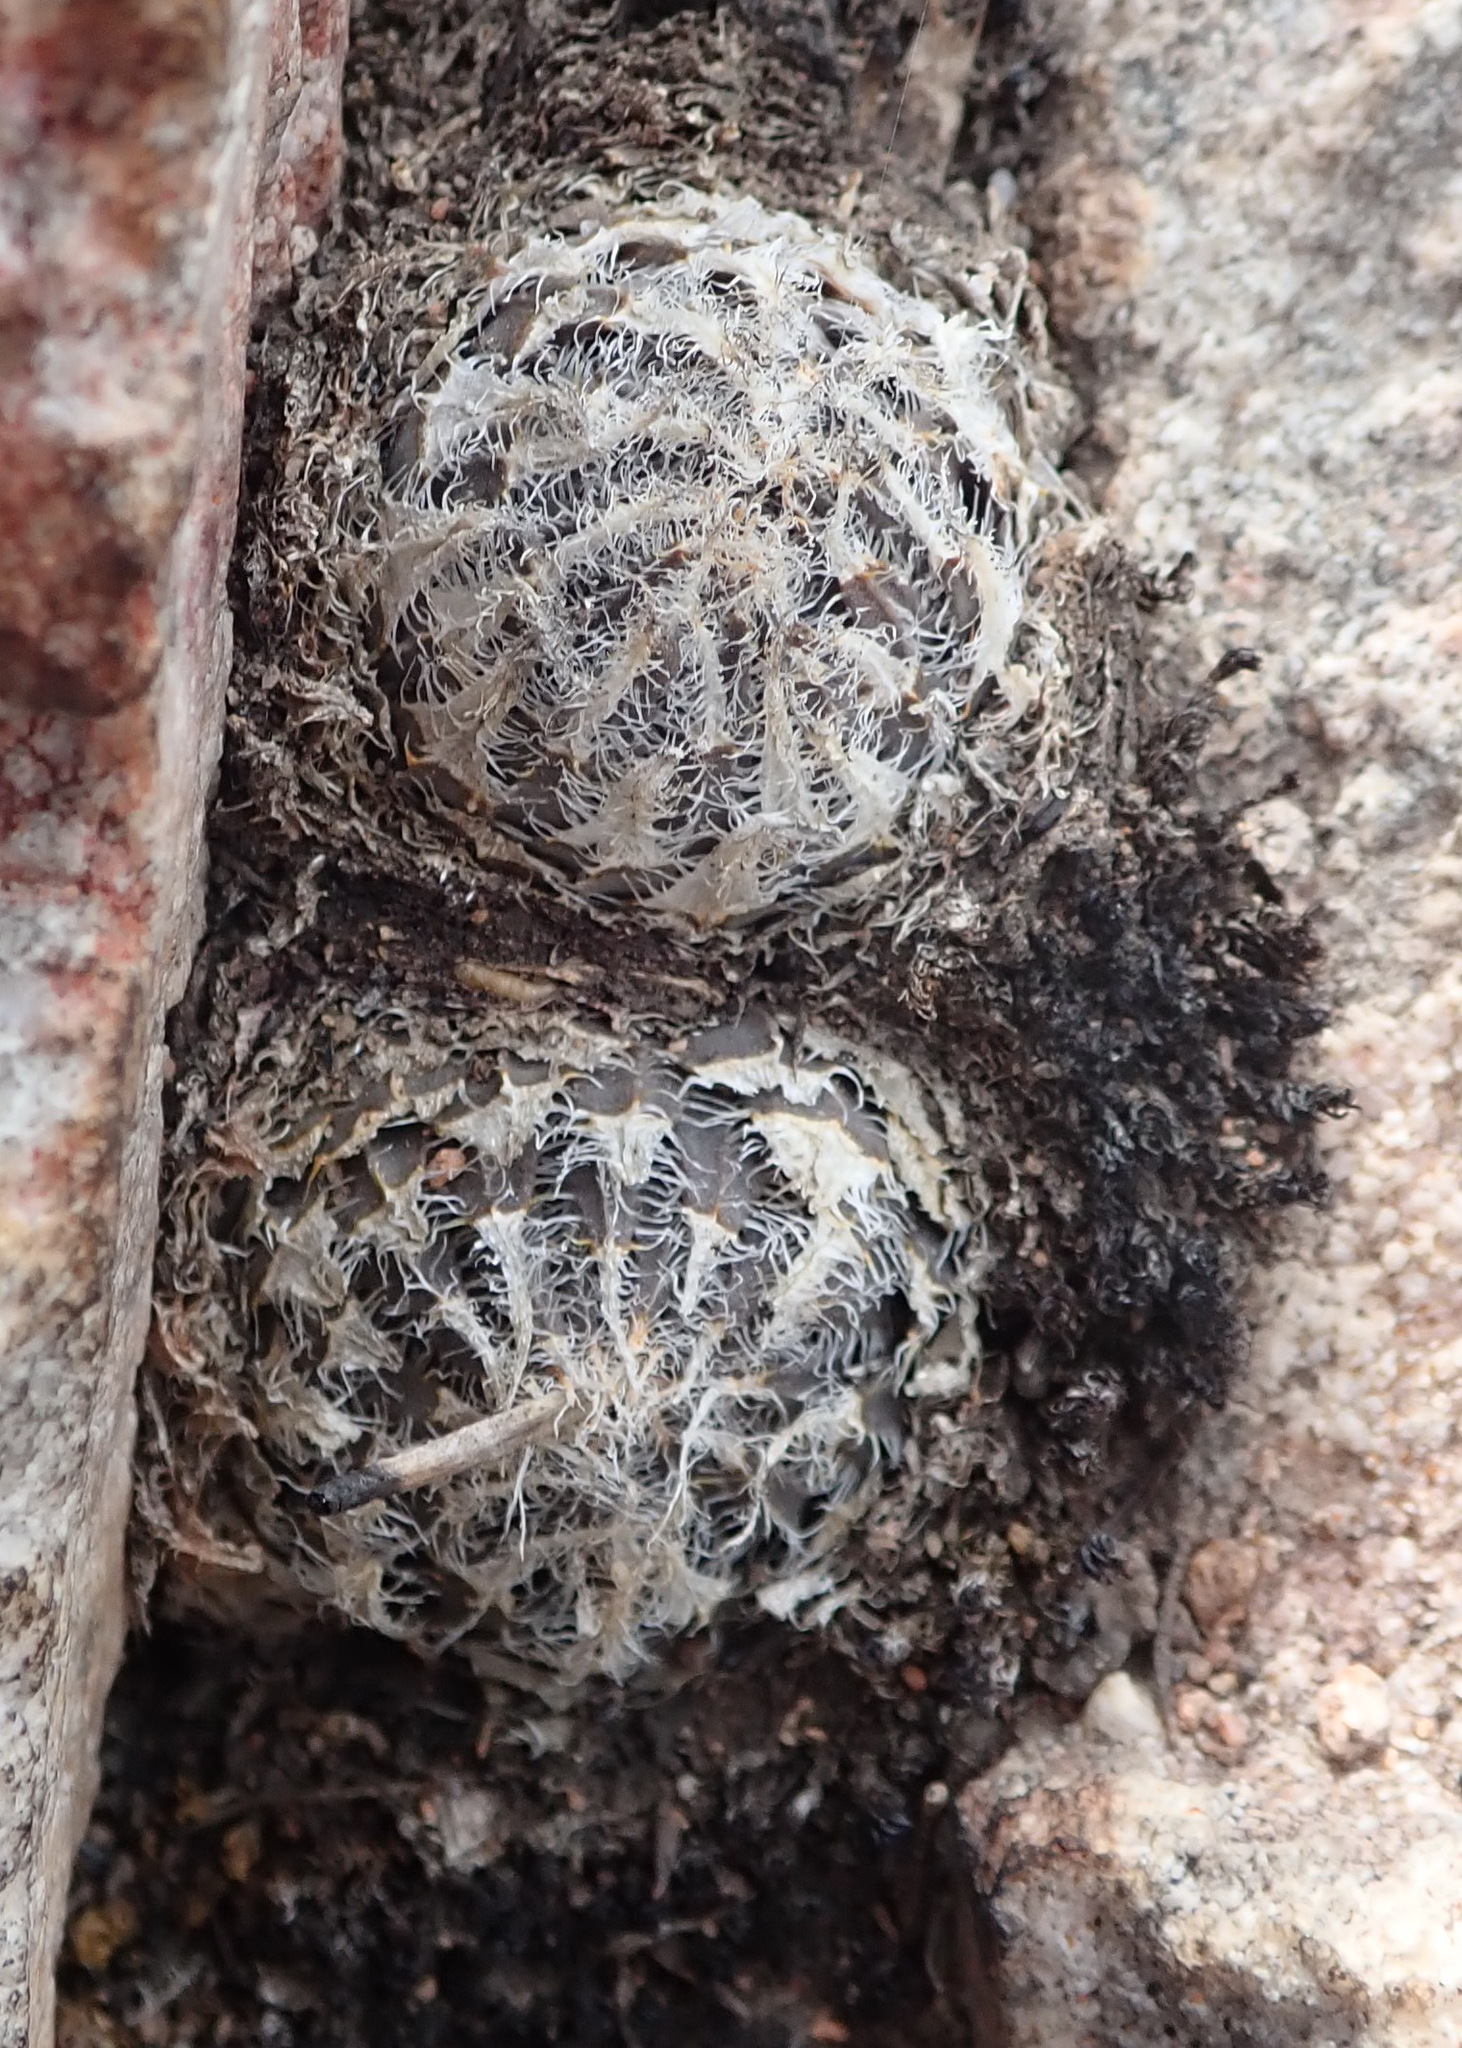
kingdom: Plantae
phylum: Tracheophyta
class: Liliopsida
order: Asparagales
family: Asphodelaceae
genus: Haworthia
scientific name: Haworthia arachnoidea
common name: Cobweb-aloe
